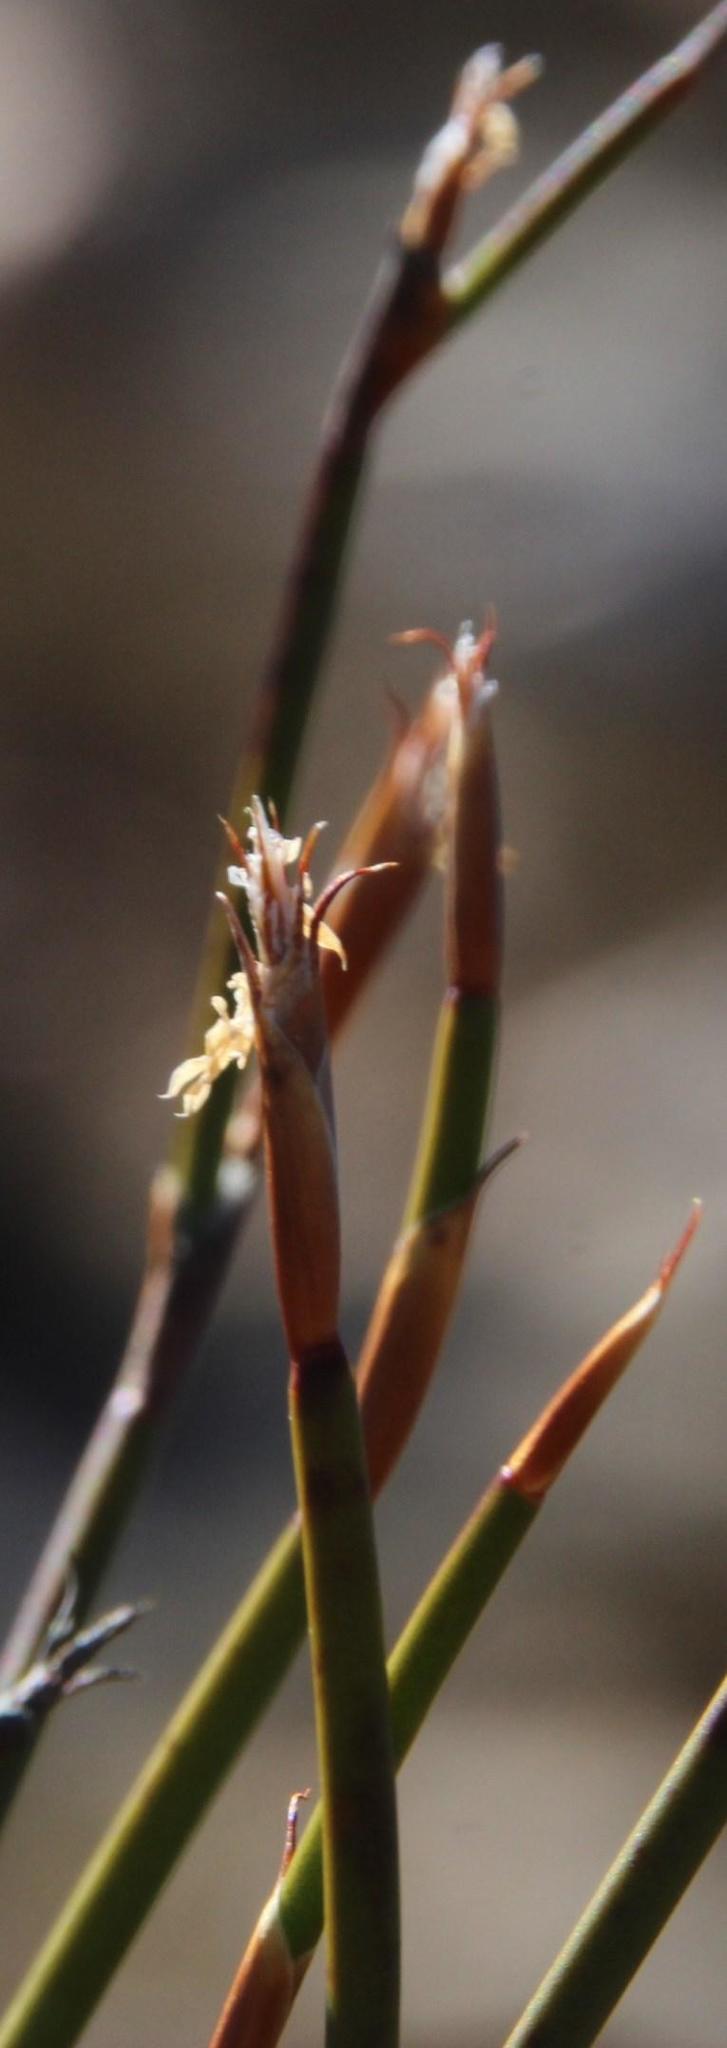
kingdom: Plantae
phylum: Tracheophyta
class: Liliopsida
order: Poales
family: Restionaceae
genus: Restio
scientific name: Restio nanus
